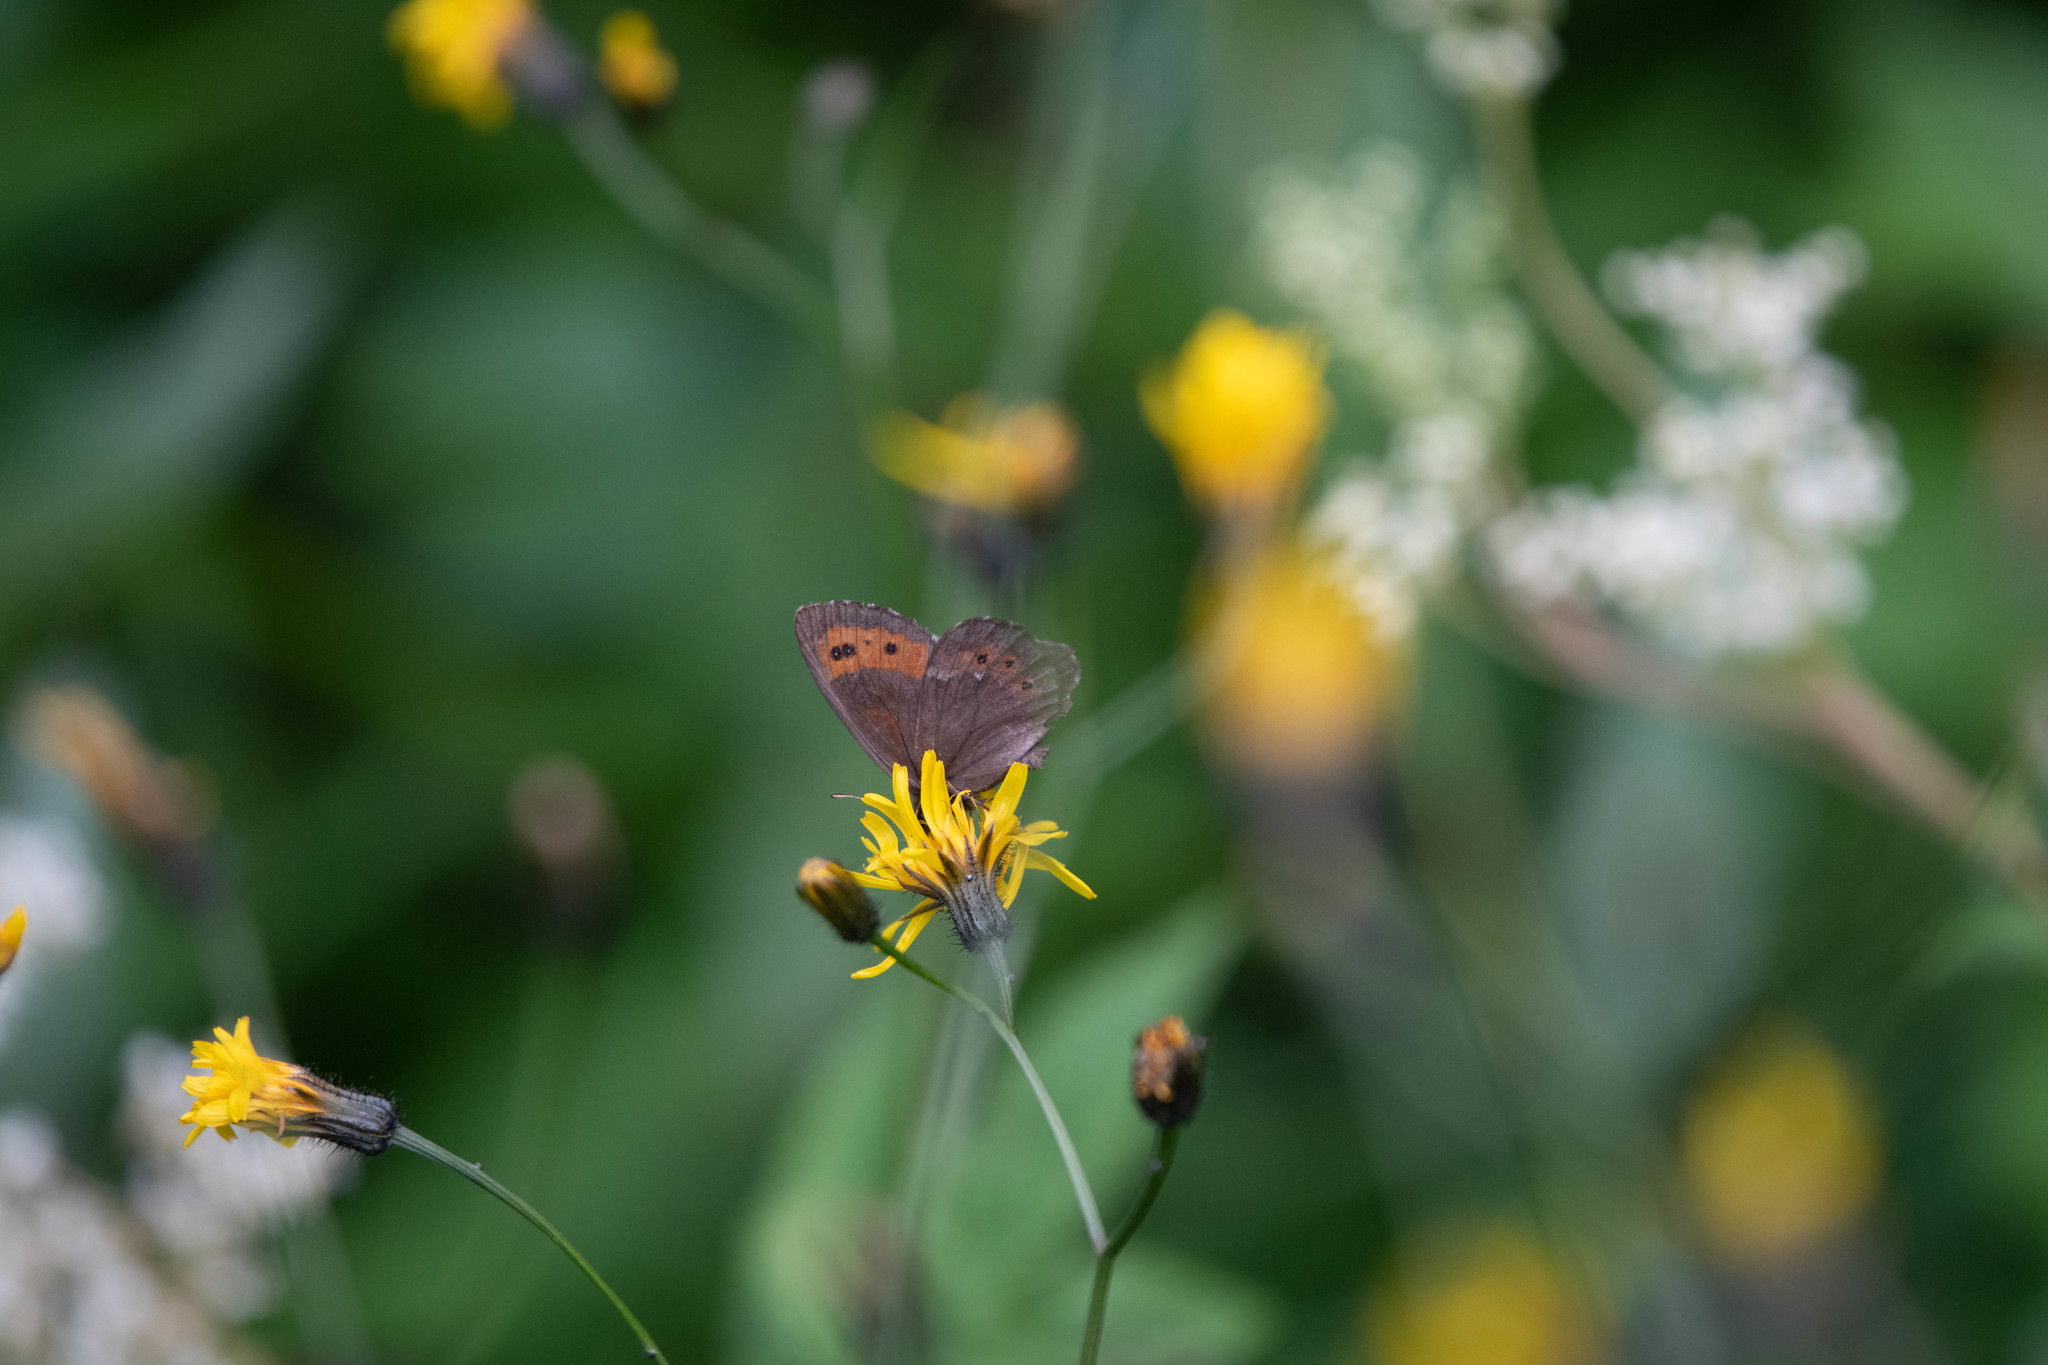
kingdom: Animalia
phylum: Arthropoda
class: Insecta
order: Lepidoptera
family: Nymphalidae
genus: Erebia
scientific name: Erebia ligea
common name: Arran brown
